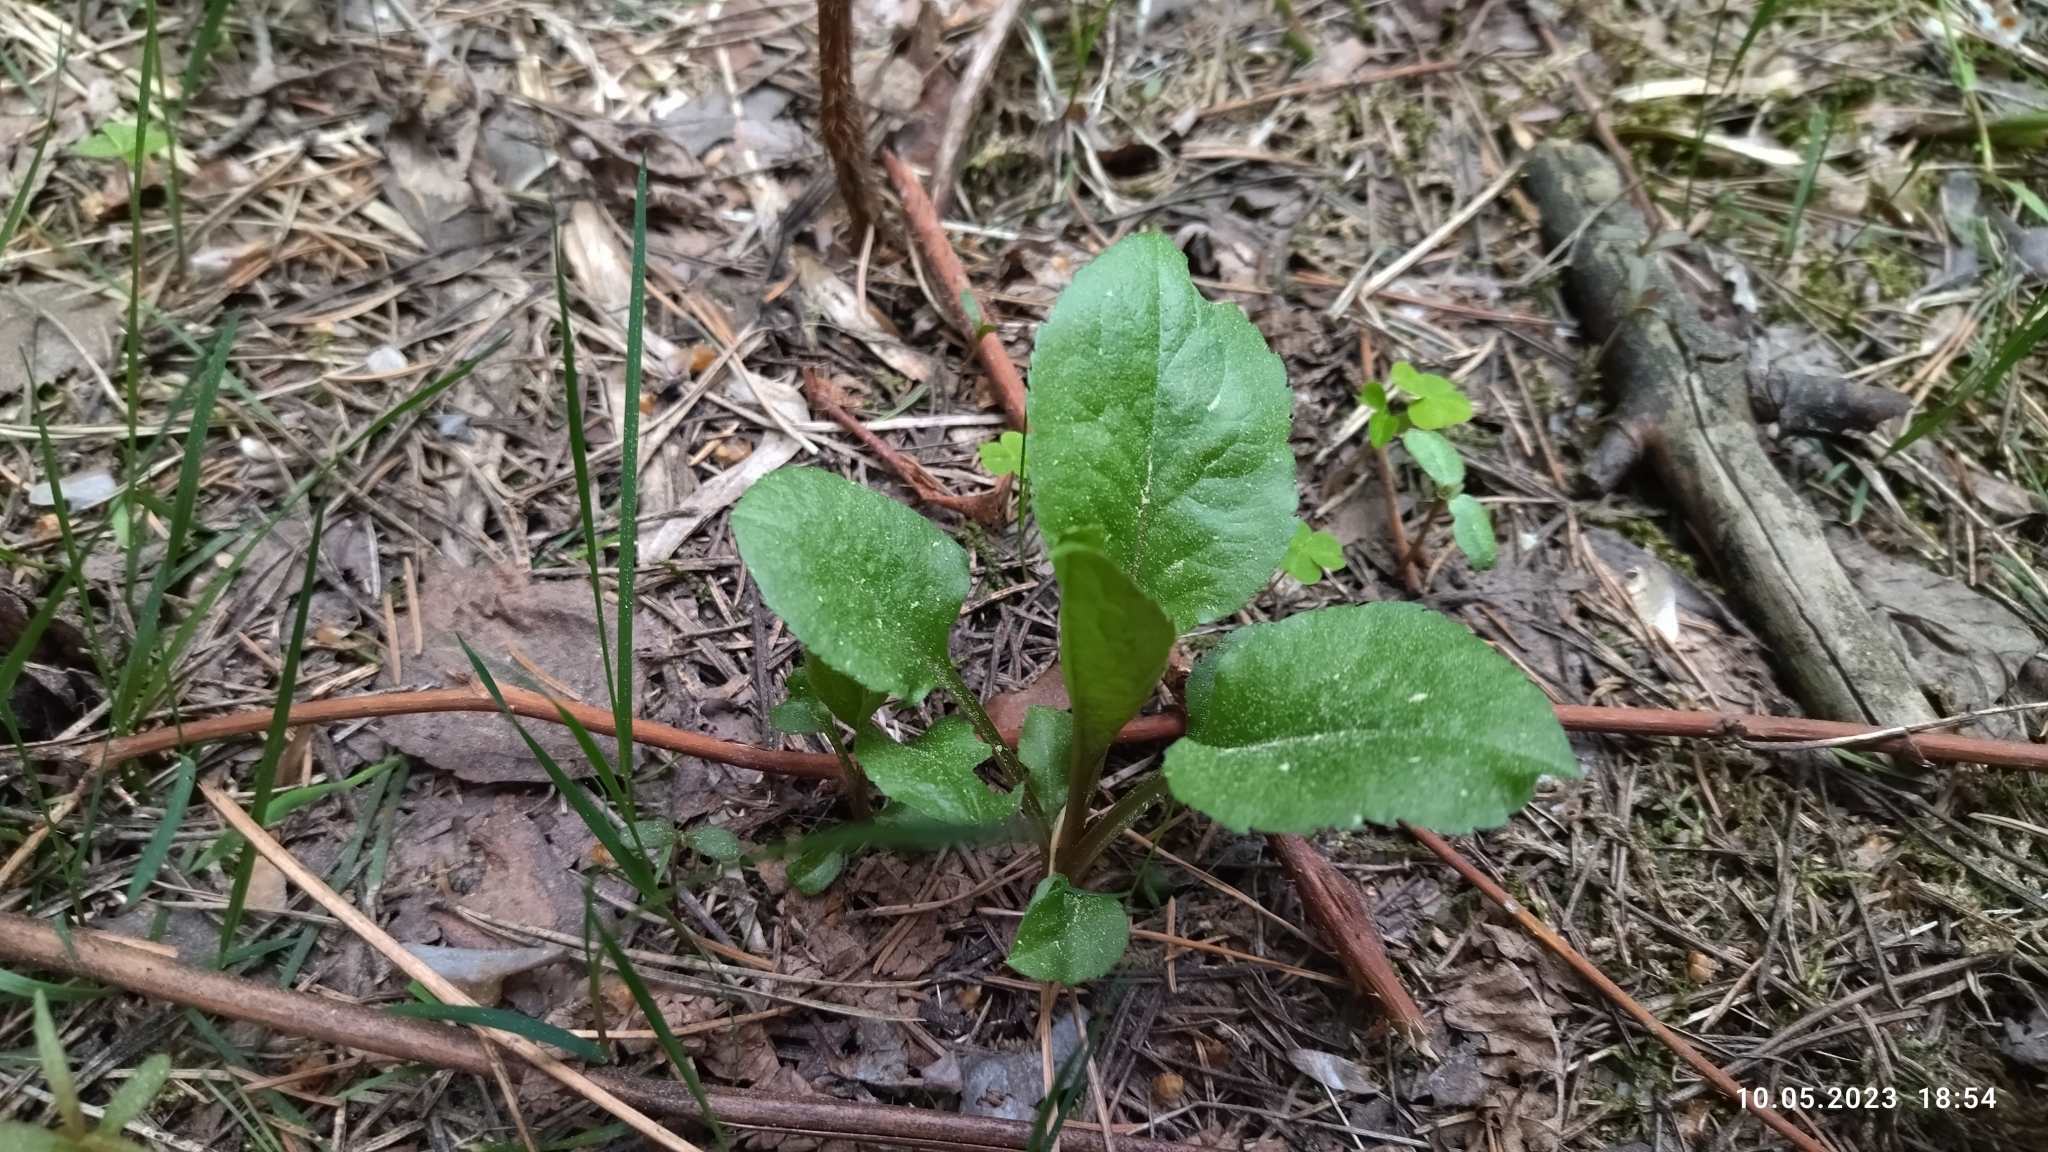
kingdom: Plantae
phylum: Tracheophyta
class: Magnoliopsida
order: Asterales
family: Asteraceae
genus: Solidago
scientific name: Solidago virgaurea
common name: Goldenrod
